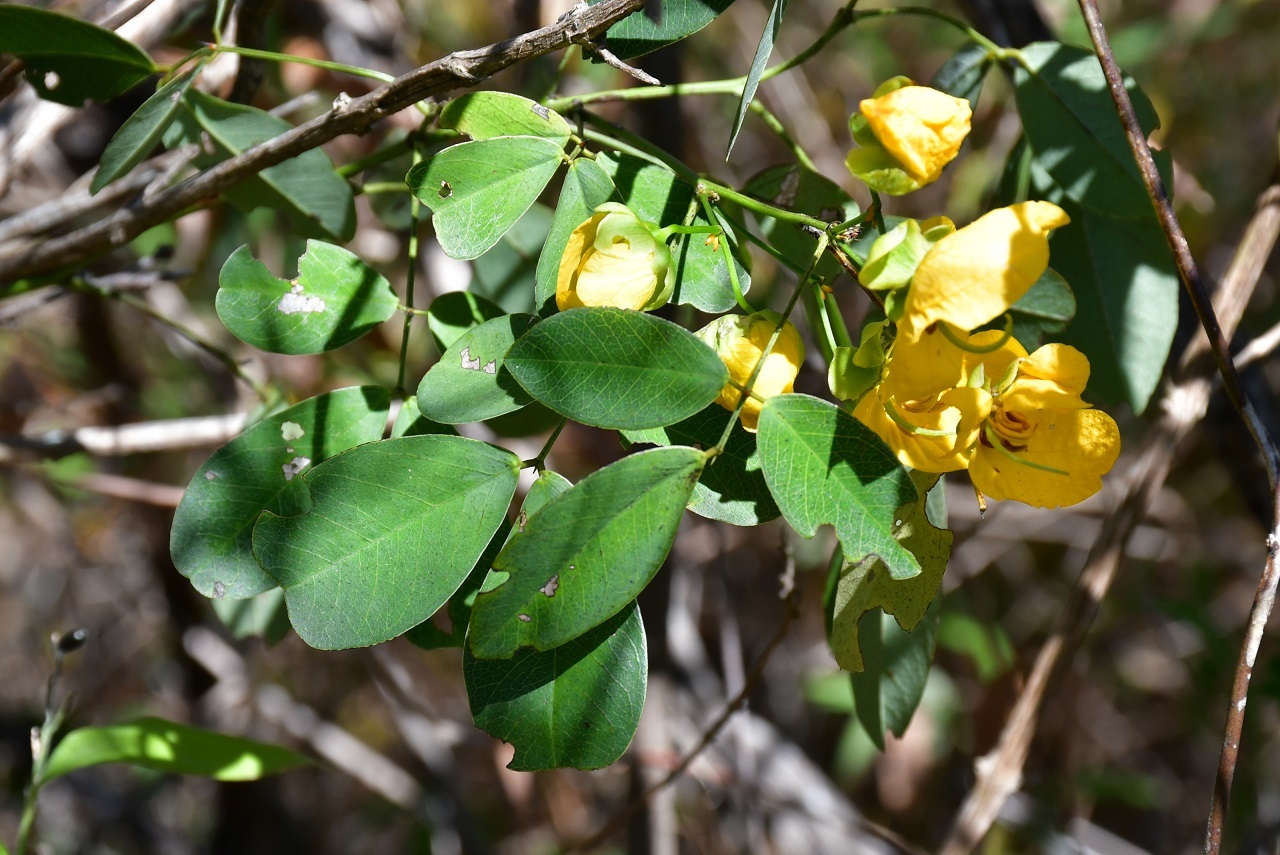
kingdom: Plantae
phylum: Tracheophyta
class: Magnoliopsida
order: Fabales
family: Fabaceae
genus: Senna
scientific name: Senna holwayana
